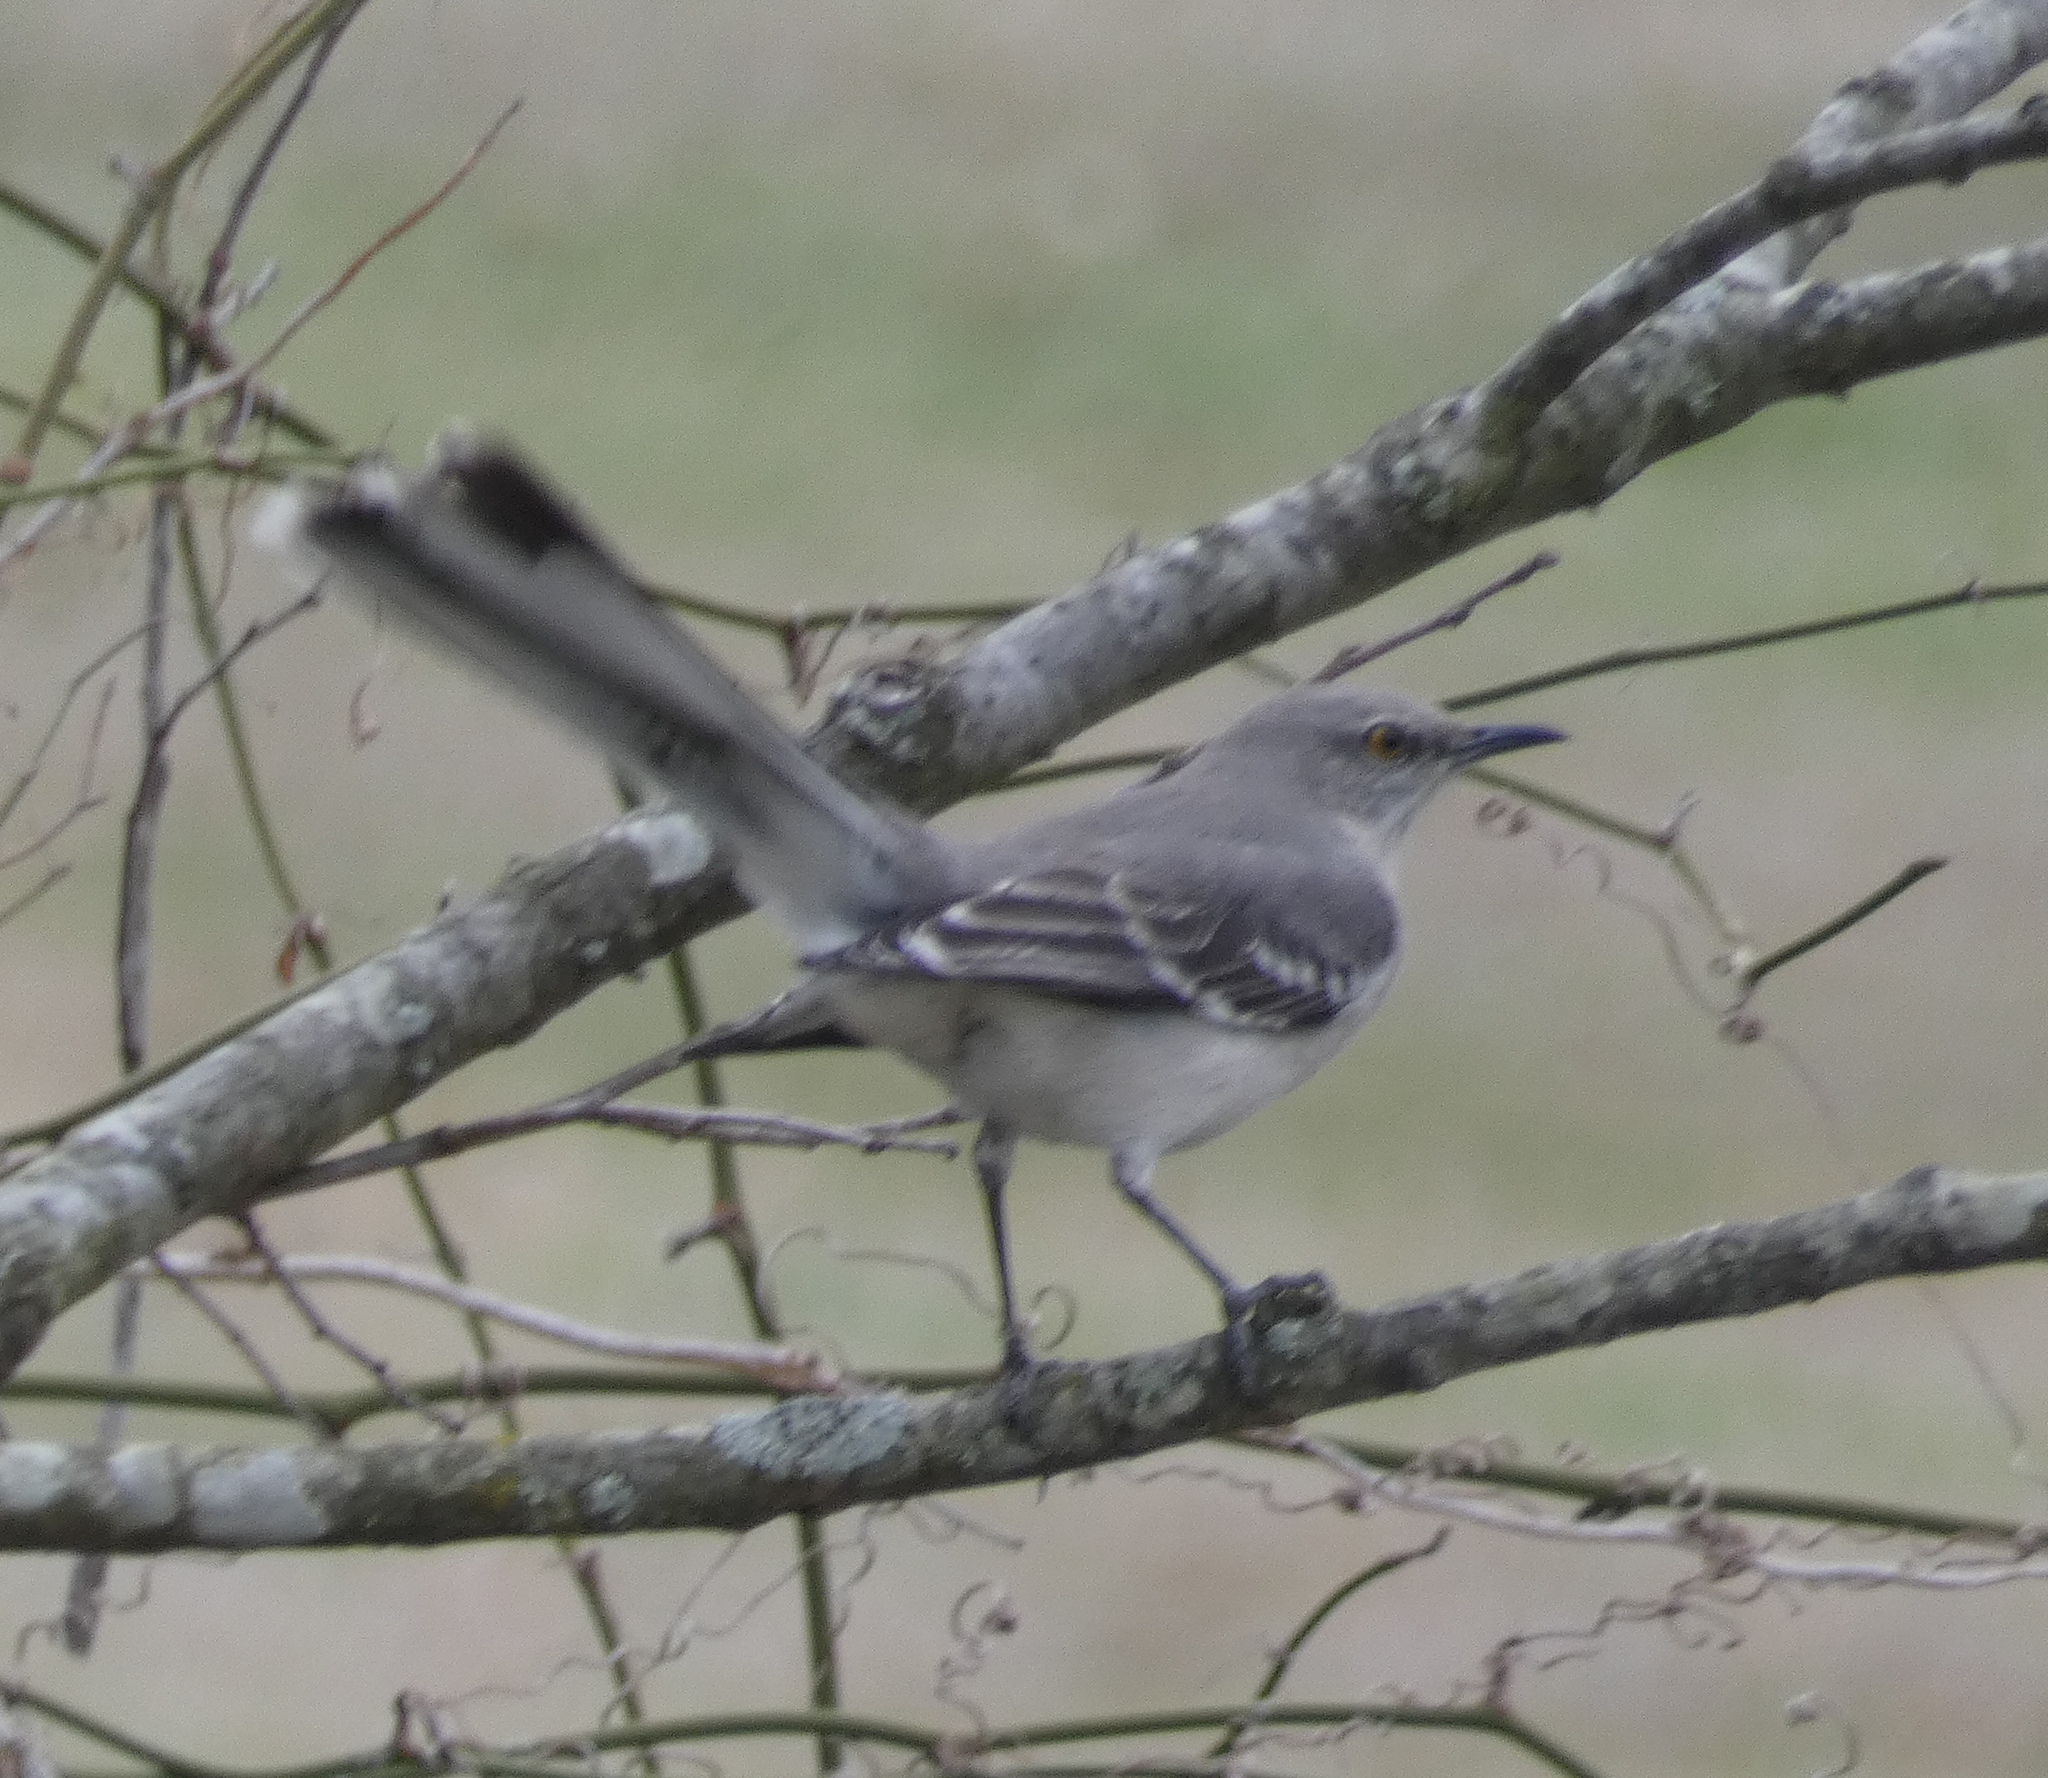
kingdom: Animalia
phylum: Chordata
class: Aves
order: Passeriformes
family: Mimidae
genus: Mimus
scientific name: Mimus polyglottos
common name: Northern mockingbird
